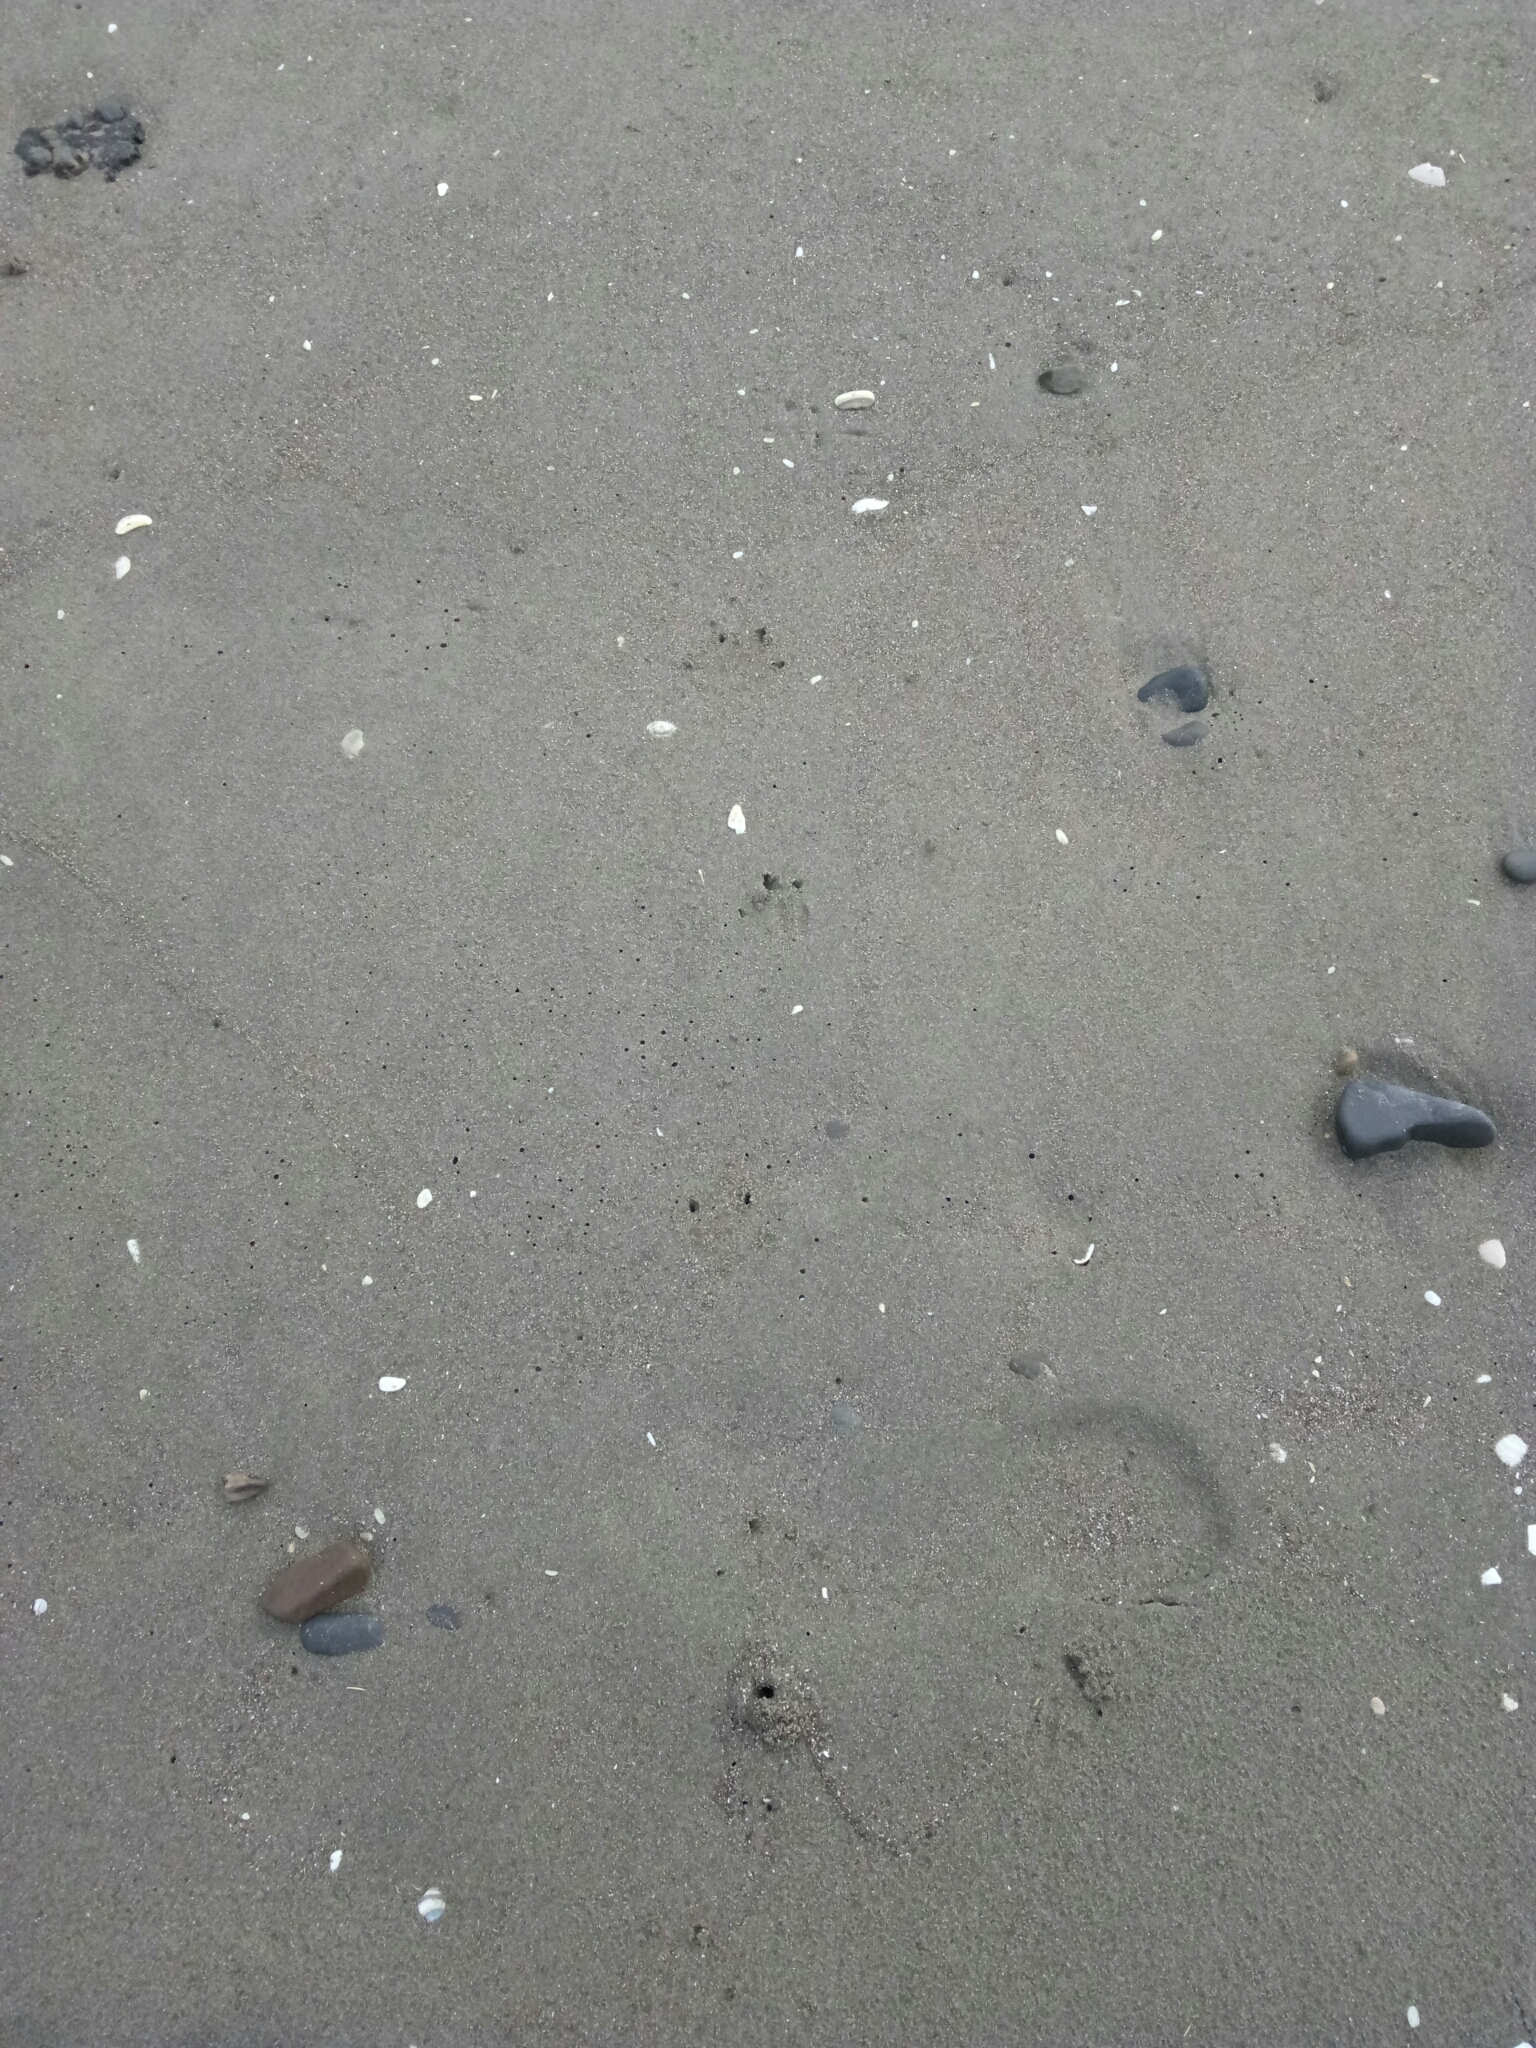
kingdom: Animalia
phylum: Chordata
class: Aves
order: Sphenisciformes
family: Spheniscidae
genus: Eudyptula
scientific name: Eudyptula minor
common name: Little penguin
